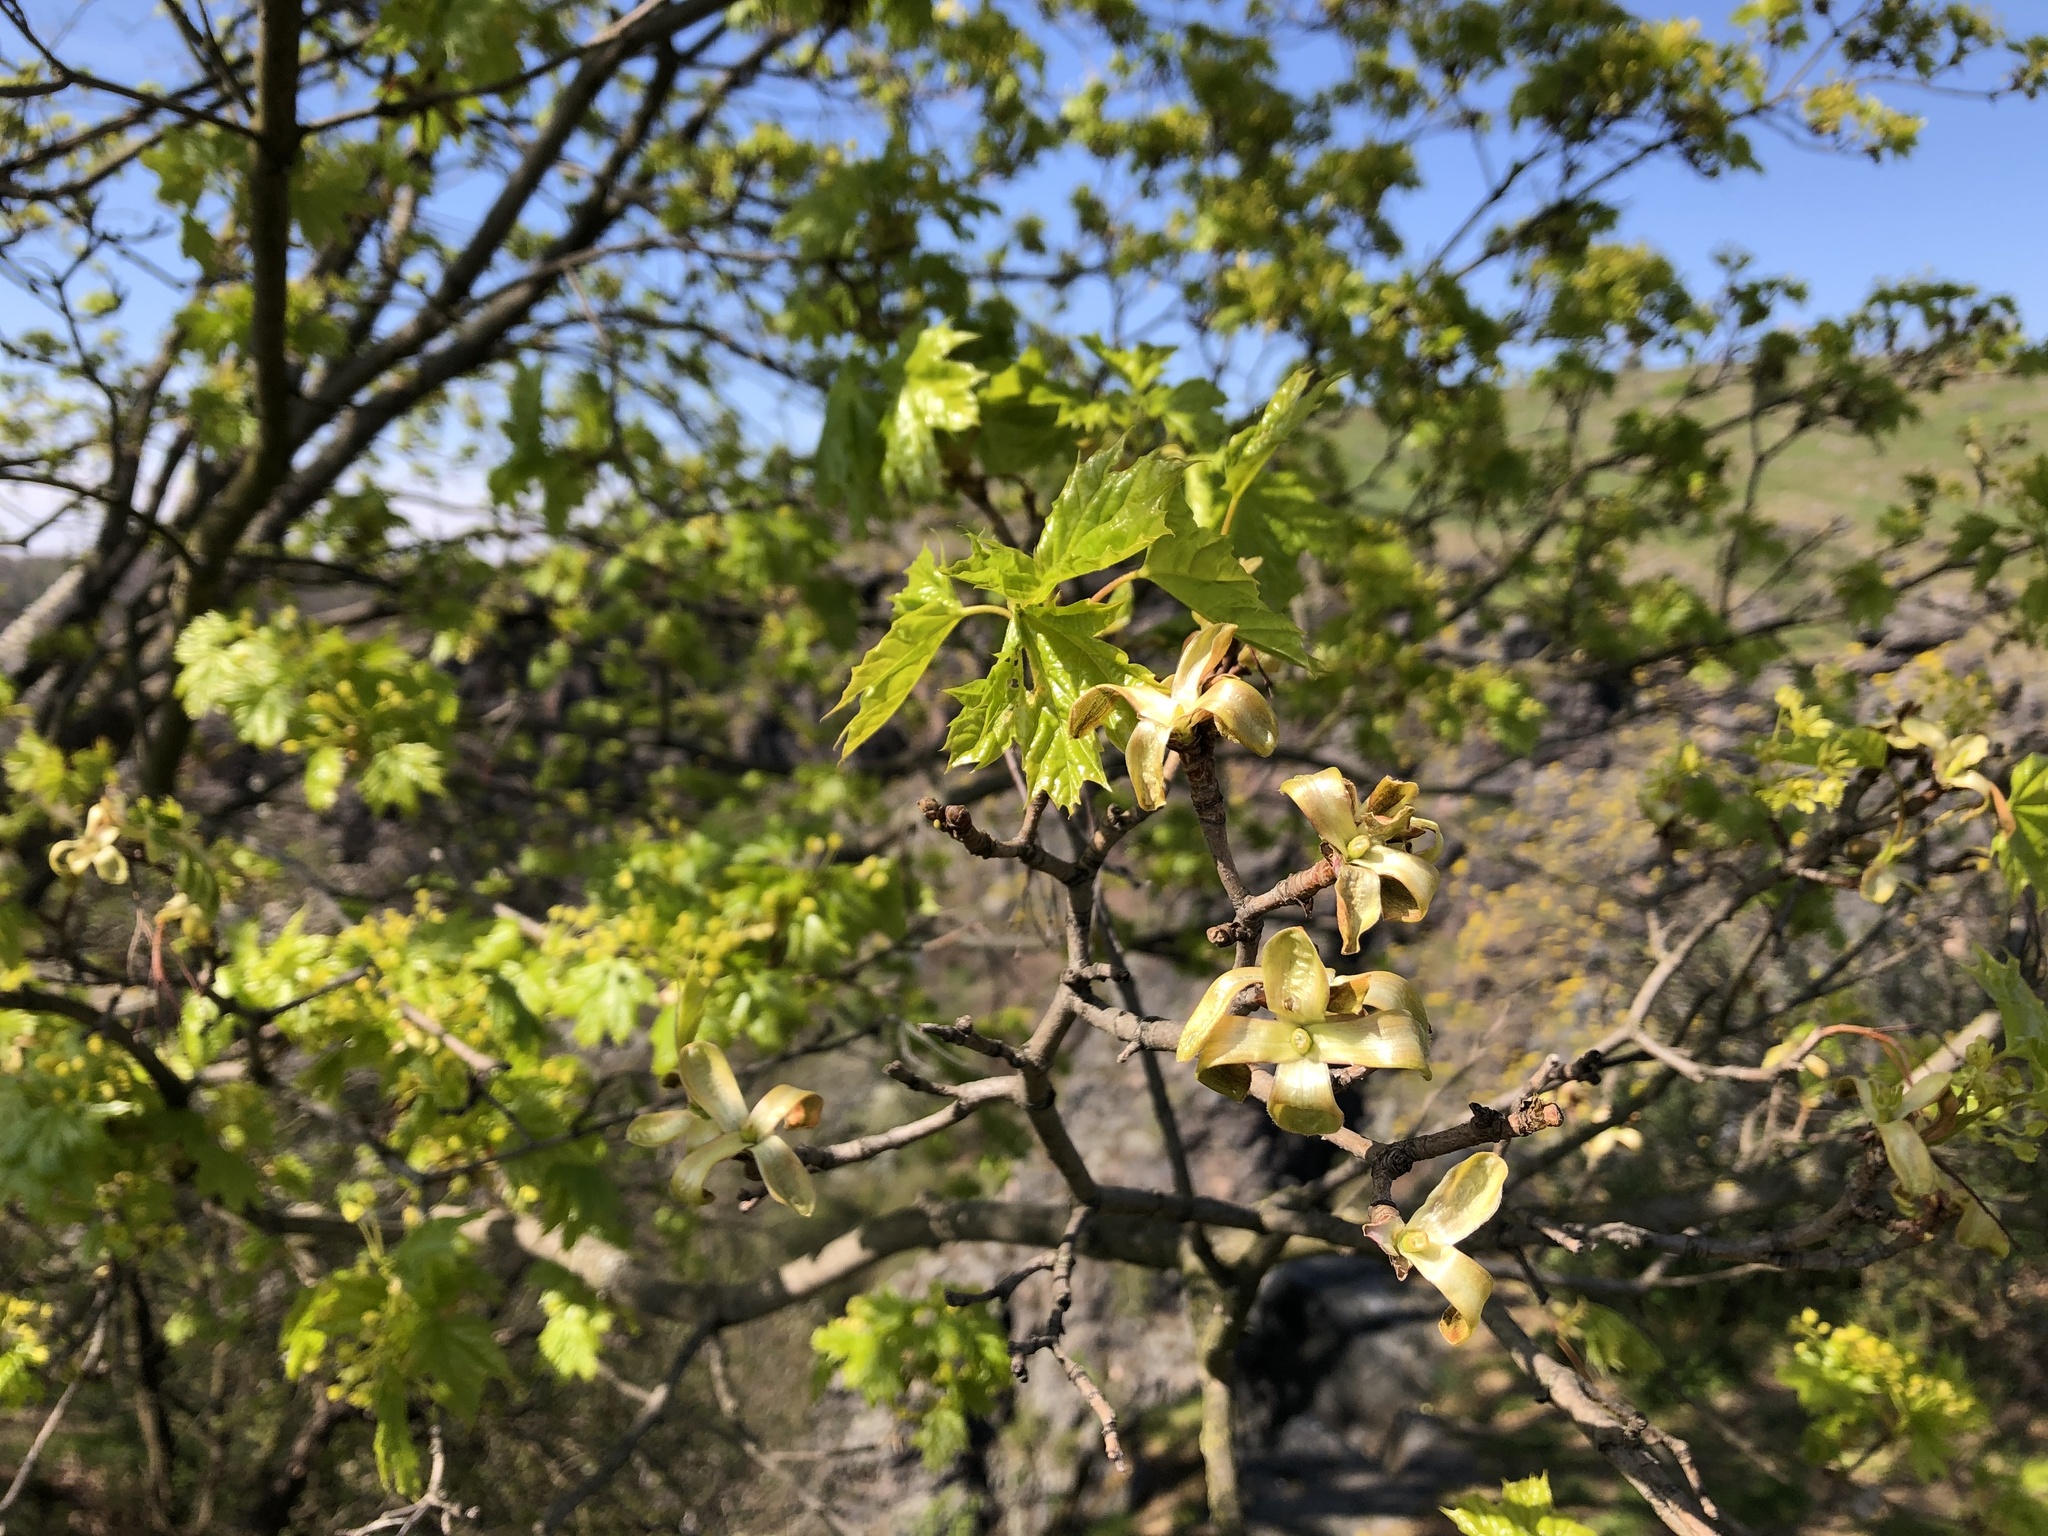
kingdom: Plantae
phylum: Tracheophyta
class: Magnoliopsida
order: Sapindales
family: Sapindaceae
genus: Acer
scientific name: Acer platanoides
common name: Norway maple
